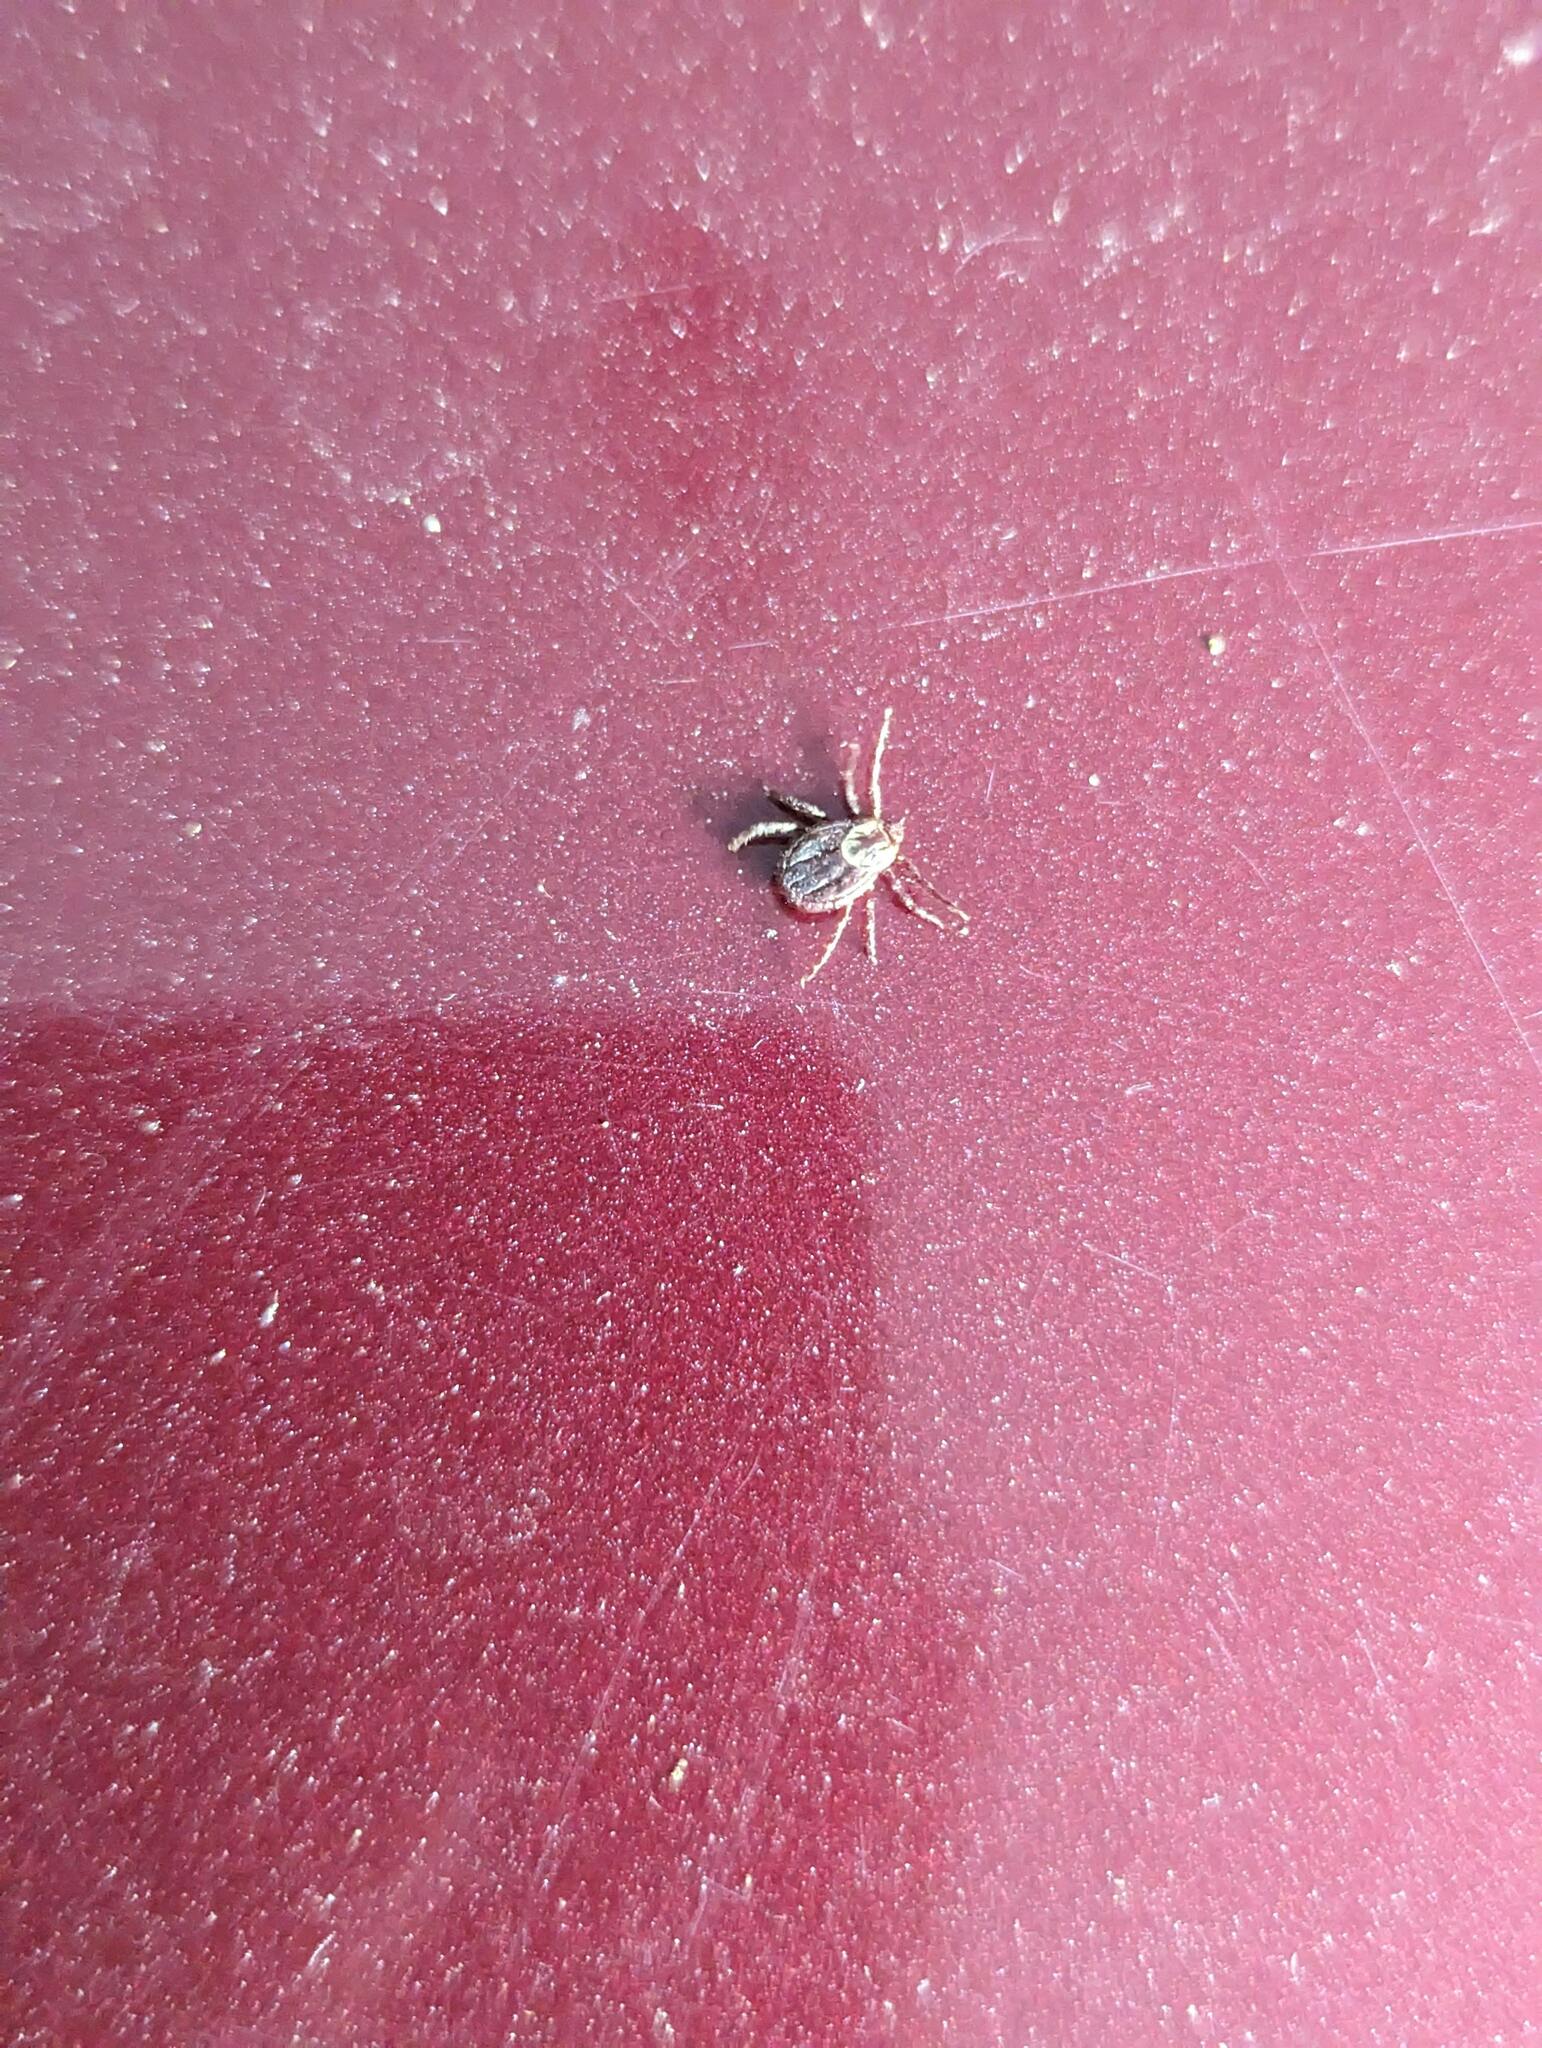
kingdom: Animalia
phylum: Arthropoda
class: Arachnida
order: Ixodida
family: Ixodidae
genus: Dermacentor
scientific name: Dermacentor variabilis
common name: American dog tick
